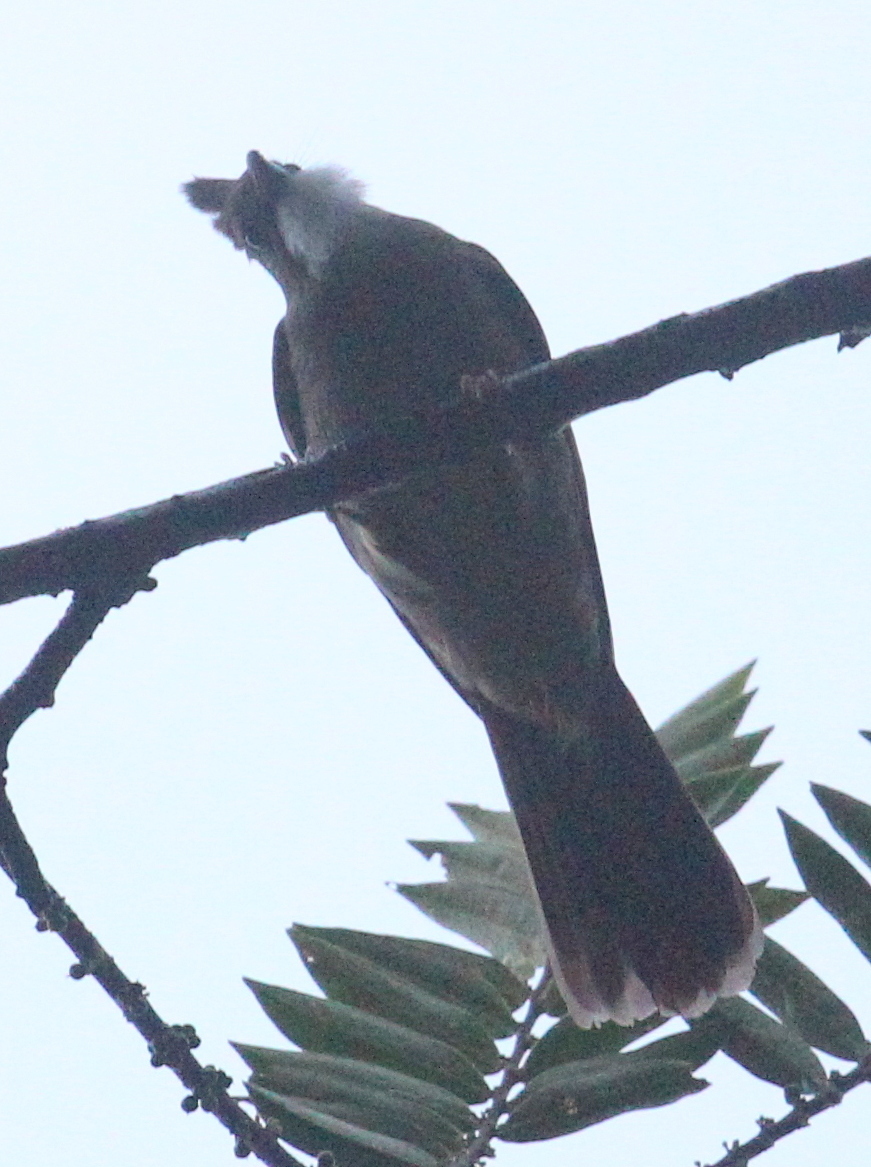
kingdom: Animalia
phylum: Chordata
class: Aves
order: Passeriformes
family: Pycnonotidae
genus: Alophoixus
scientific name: Alophoixus ochraceus
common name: Ochraceous bulbul
